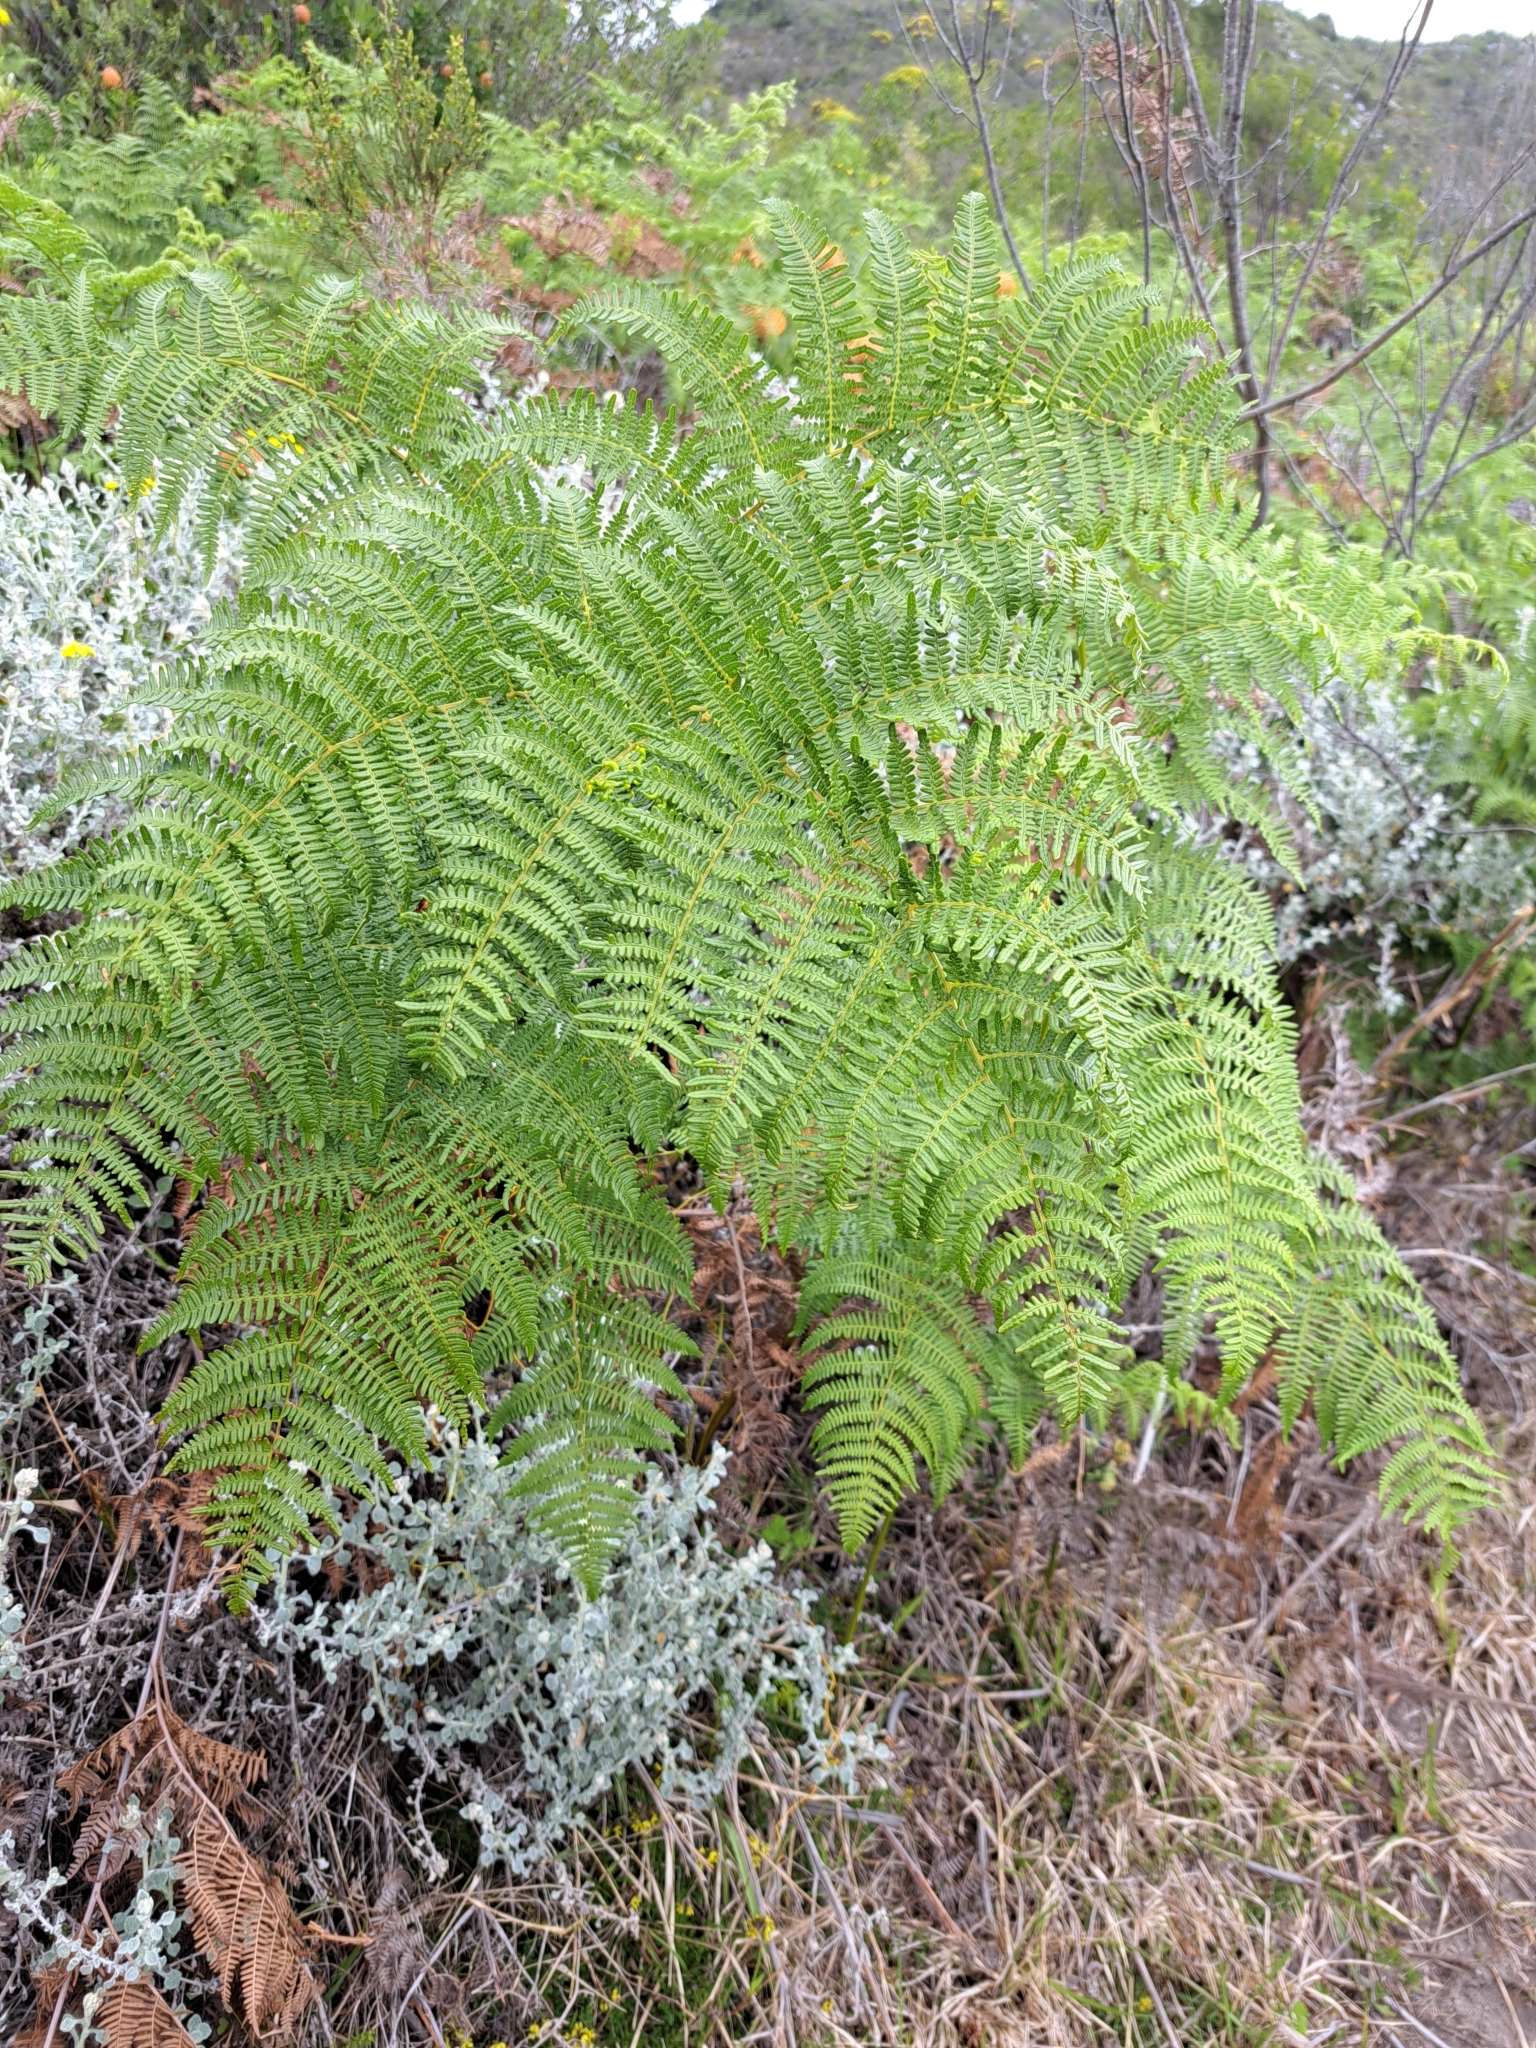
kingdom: Plantae
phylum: Tracheophyta
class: Polypodiopsida
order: Polypodiales
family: Dennstaedtiaceae
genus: Pteridium
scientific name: Pteridium aquilinum
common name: Bracken
